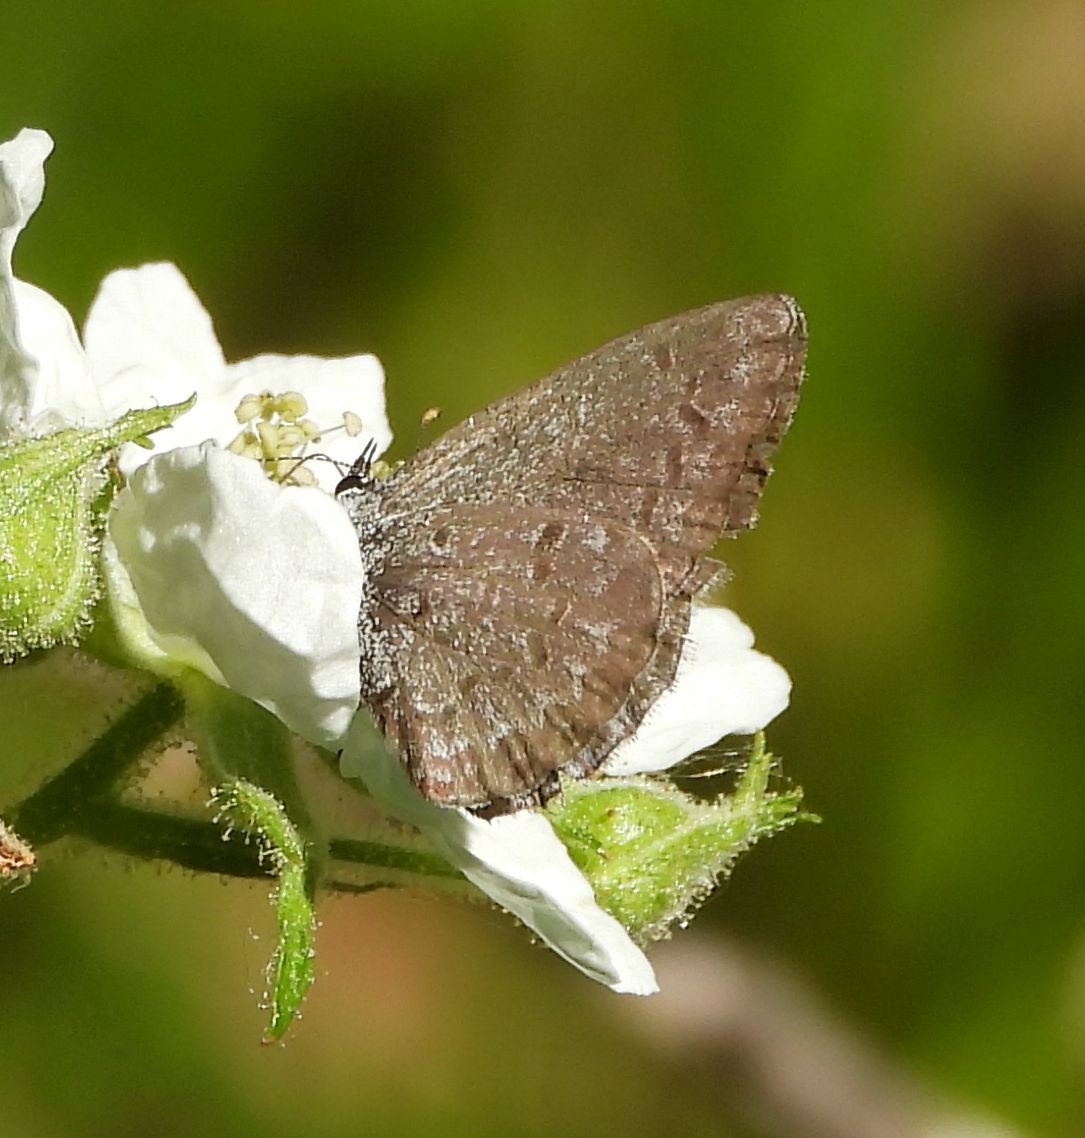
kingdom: Animalia
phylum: Arthropoda
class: Insecta
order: Lepidoptera
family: Lycaenidae
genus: Celastrina
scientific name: Celastrina lucia
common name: Lucia azure
